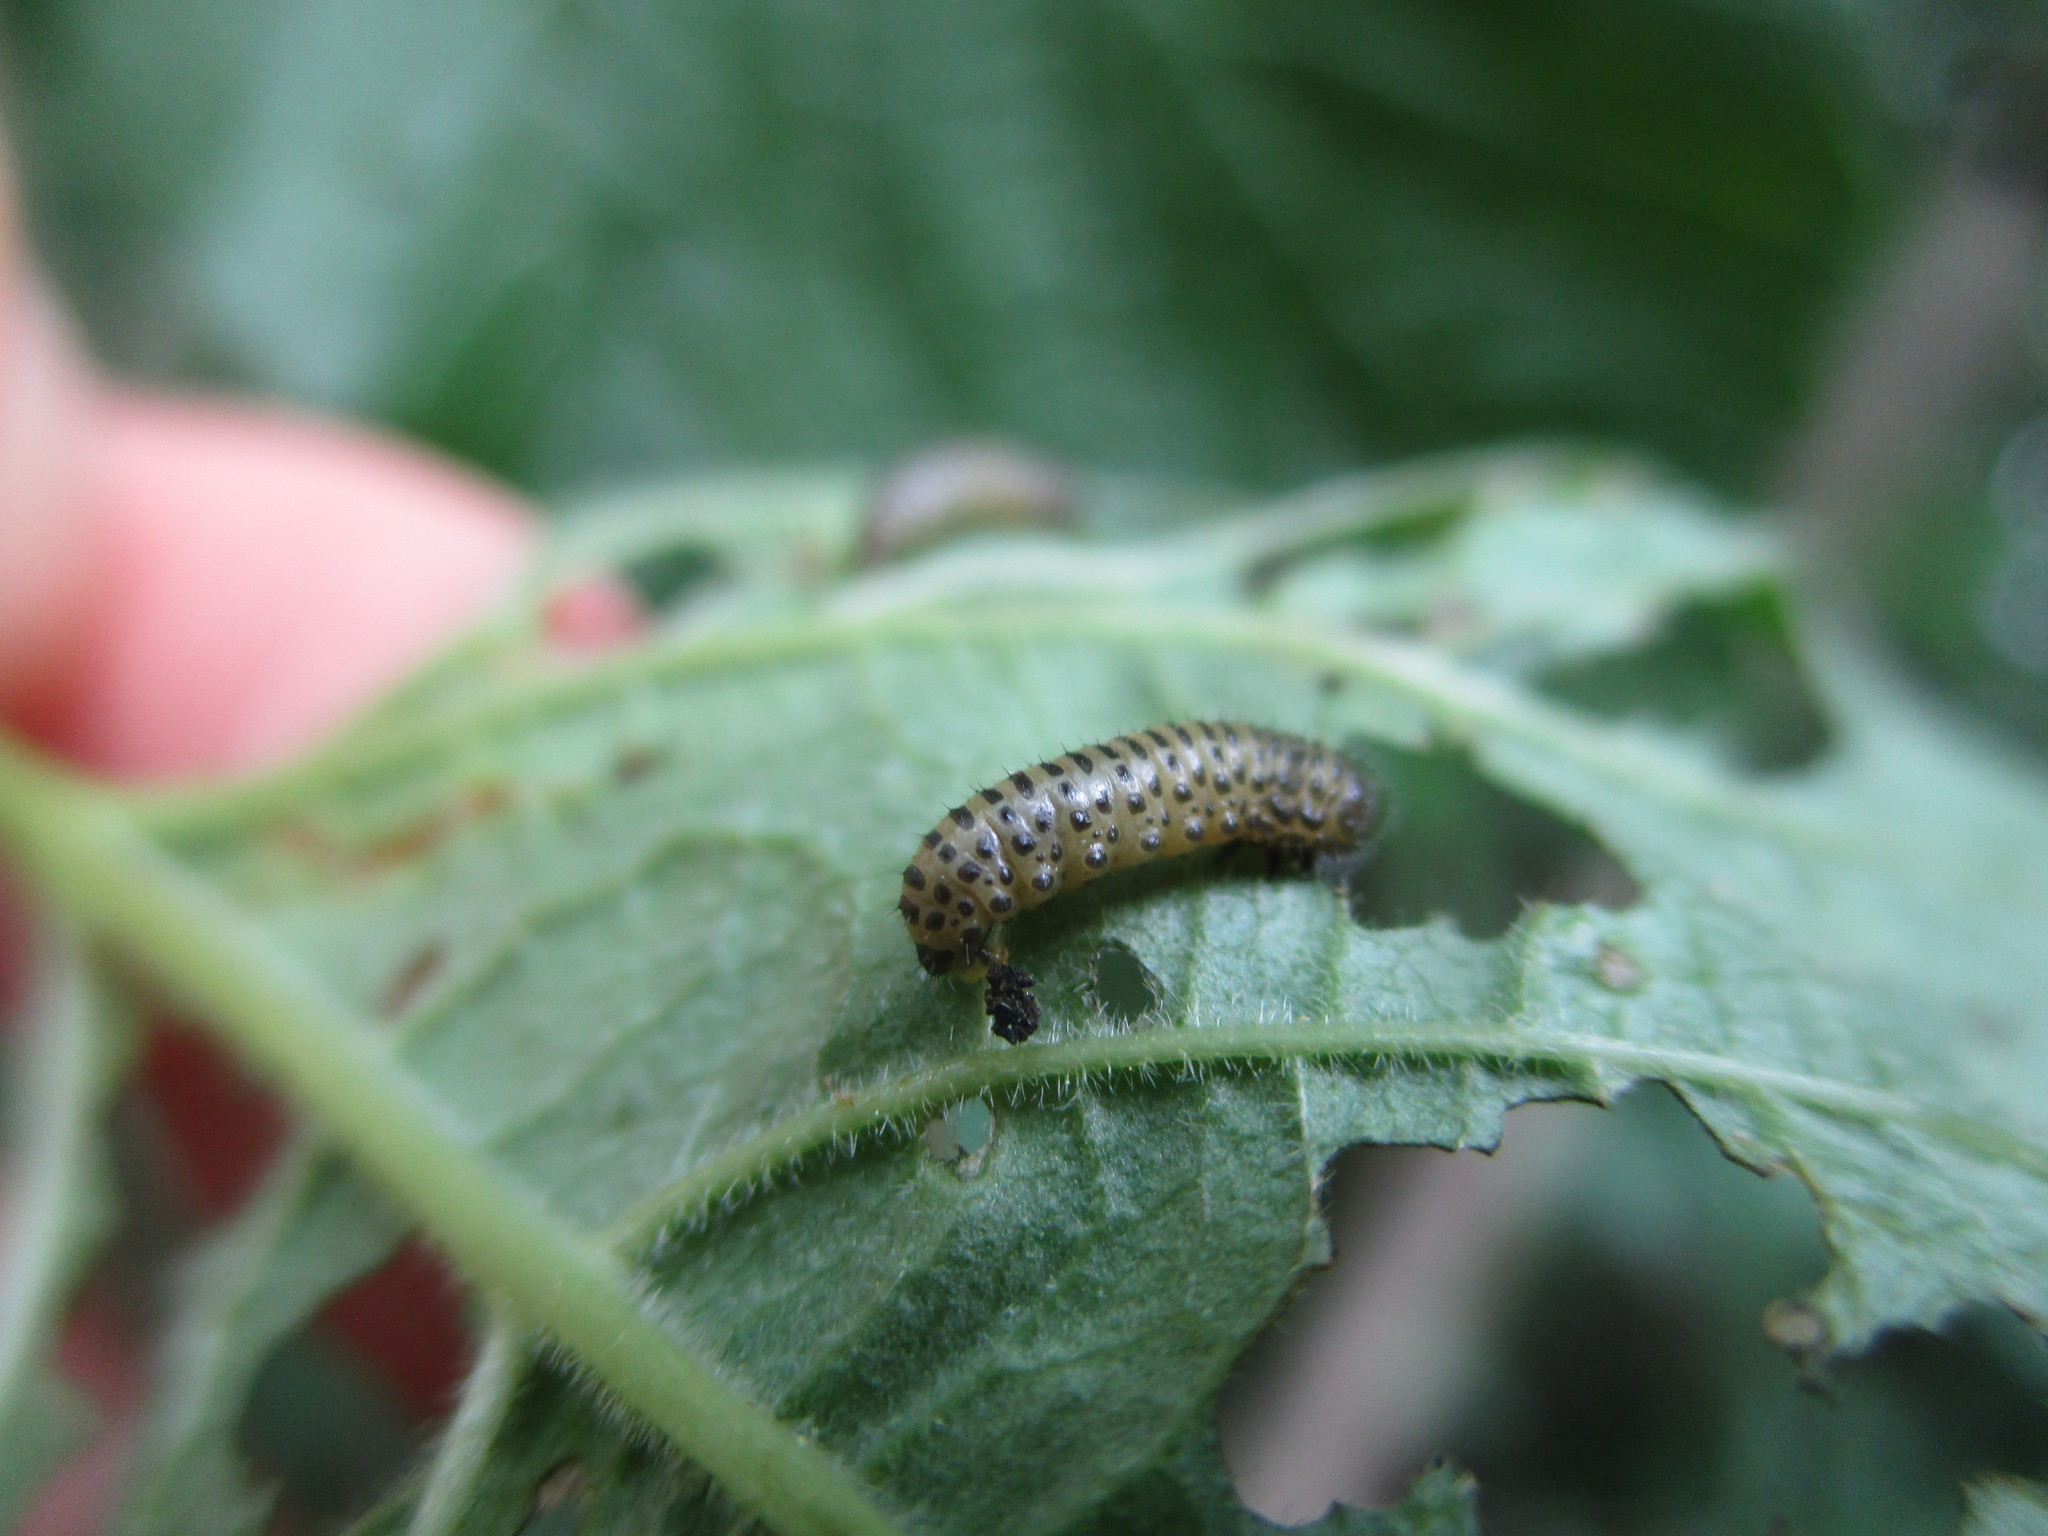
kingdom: Animalia
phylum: Arthropoda
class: Insecta
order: Coleoptera
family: Chrysomelidae
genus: Pyrrhalta
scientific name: Pyrrhalta viburni
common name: Guelder-rose leaf beetle
